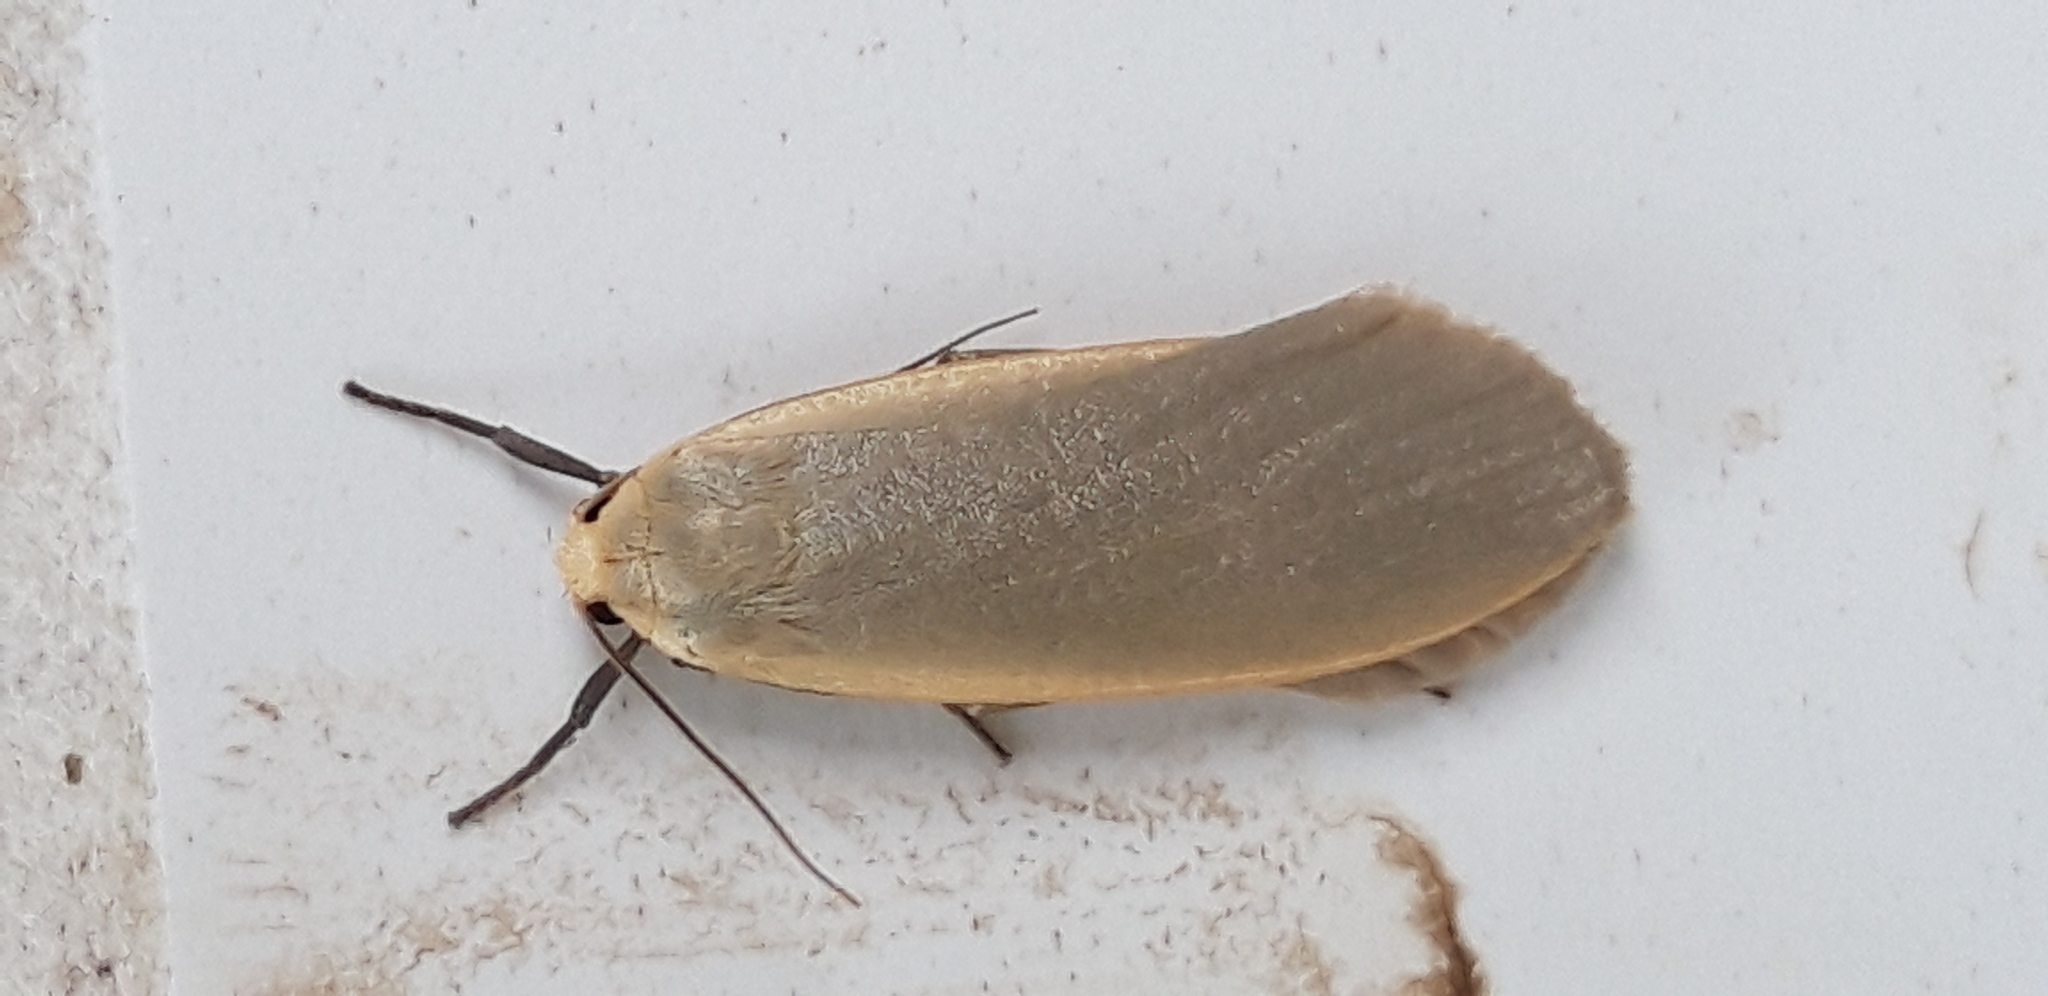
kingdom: Animalia
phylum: Arthropoda
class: Insecta
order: Lepidoptera
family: Erebidae
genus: Eilema
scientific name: Eilema
